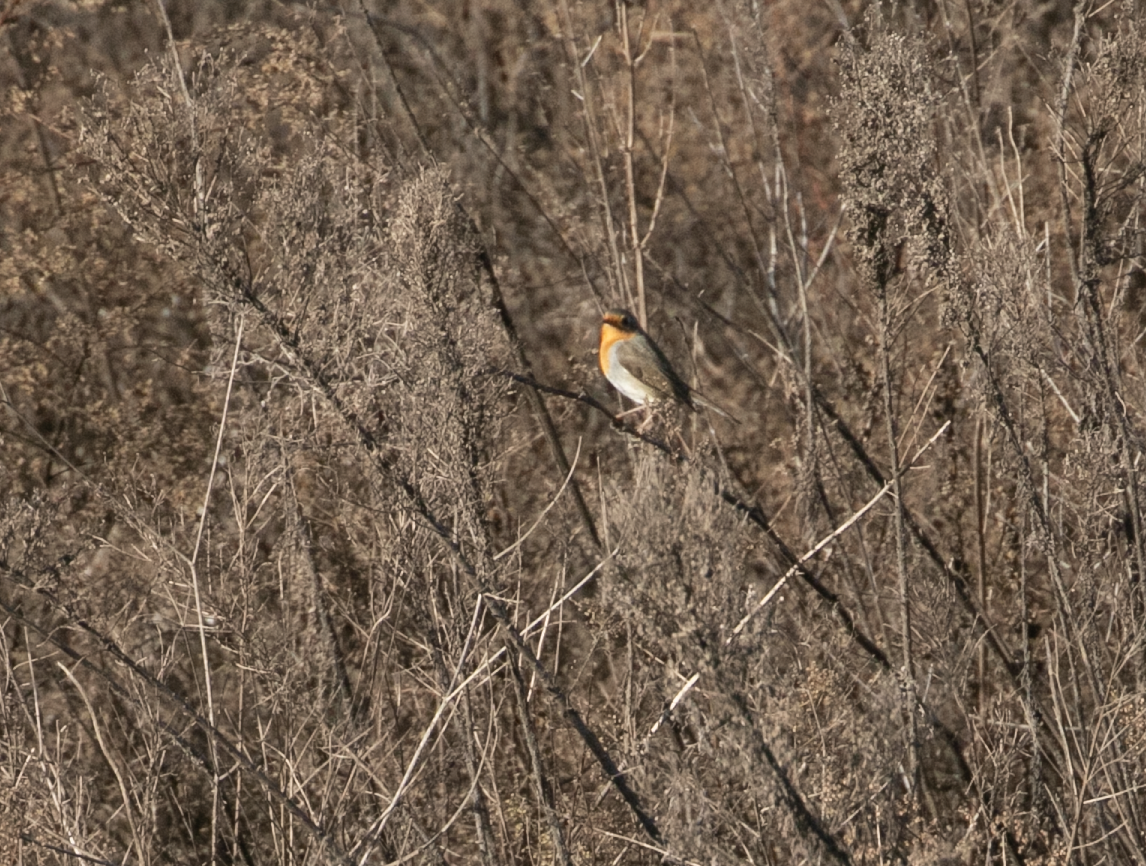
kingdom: Animalia
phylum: Chordata
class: Aves
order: Passeriformes
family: Muscicapidae
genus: Erithacus
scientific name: Erithacus rubecula
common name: European robin
